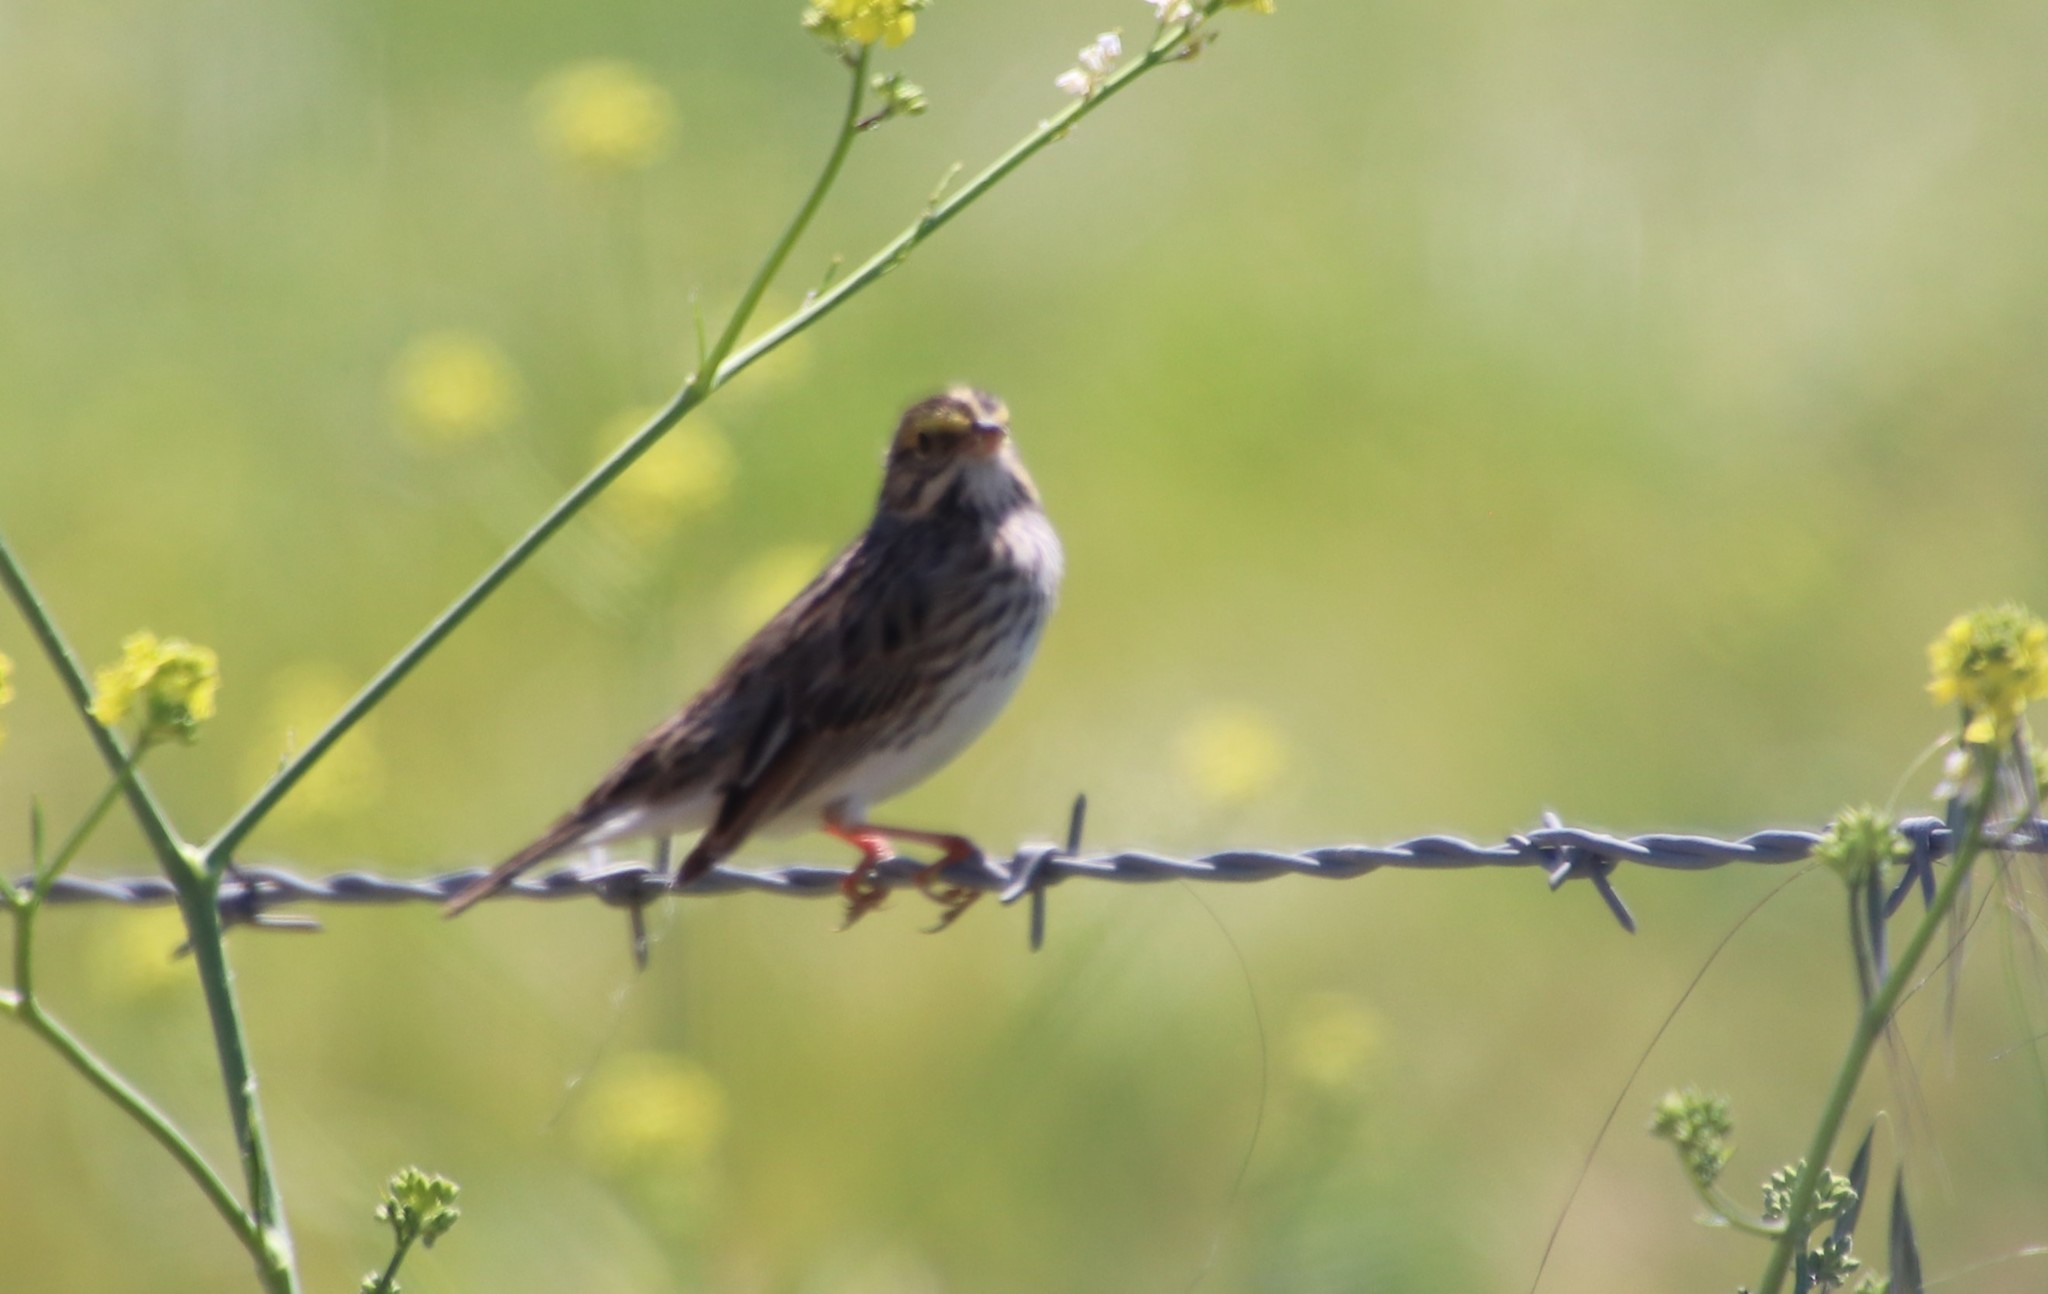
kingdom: Animalia
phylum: Chordata
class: Aves
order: Passeriformes
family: Passerellidae
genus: Passerculus
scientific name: Passerculus sandwichensis
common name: Savannah sparrow
